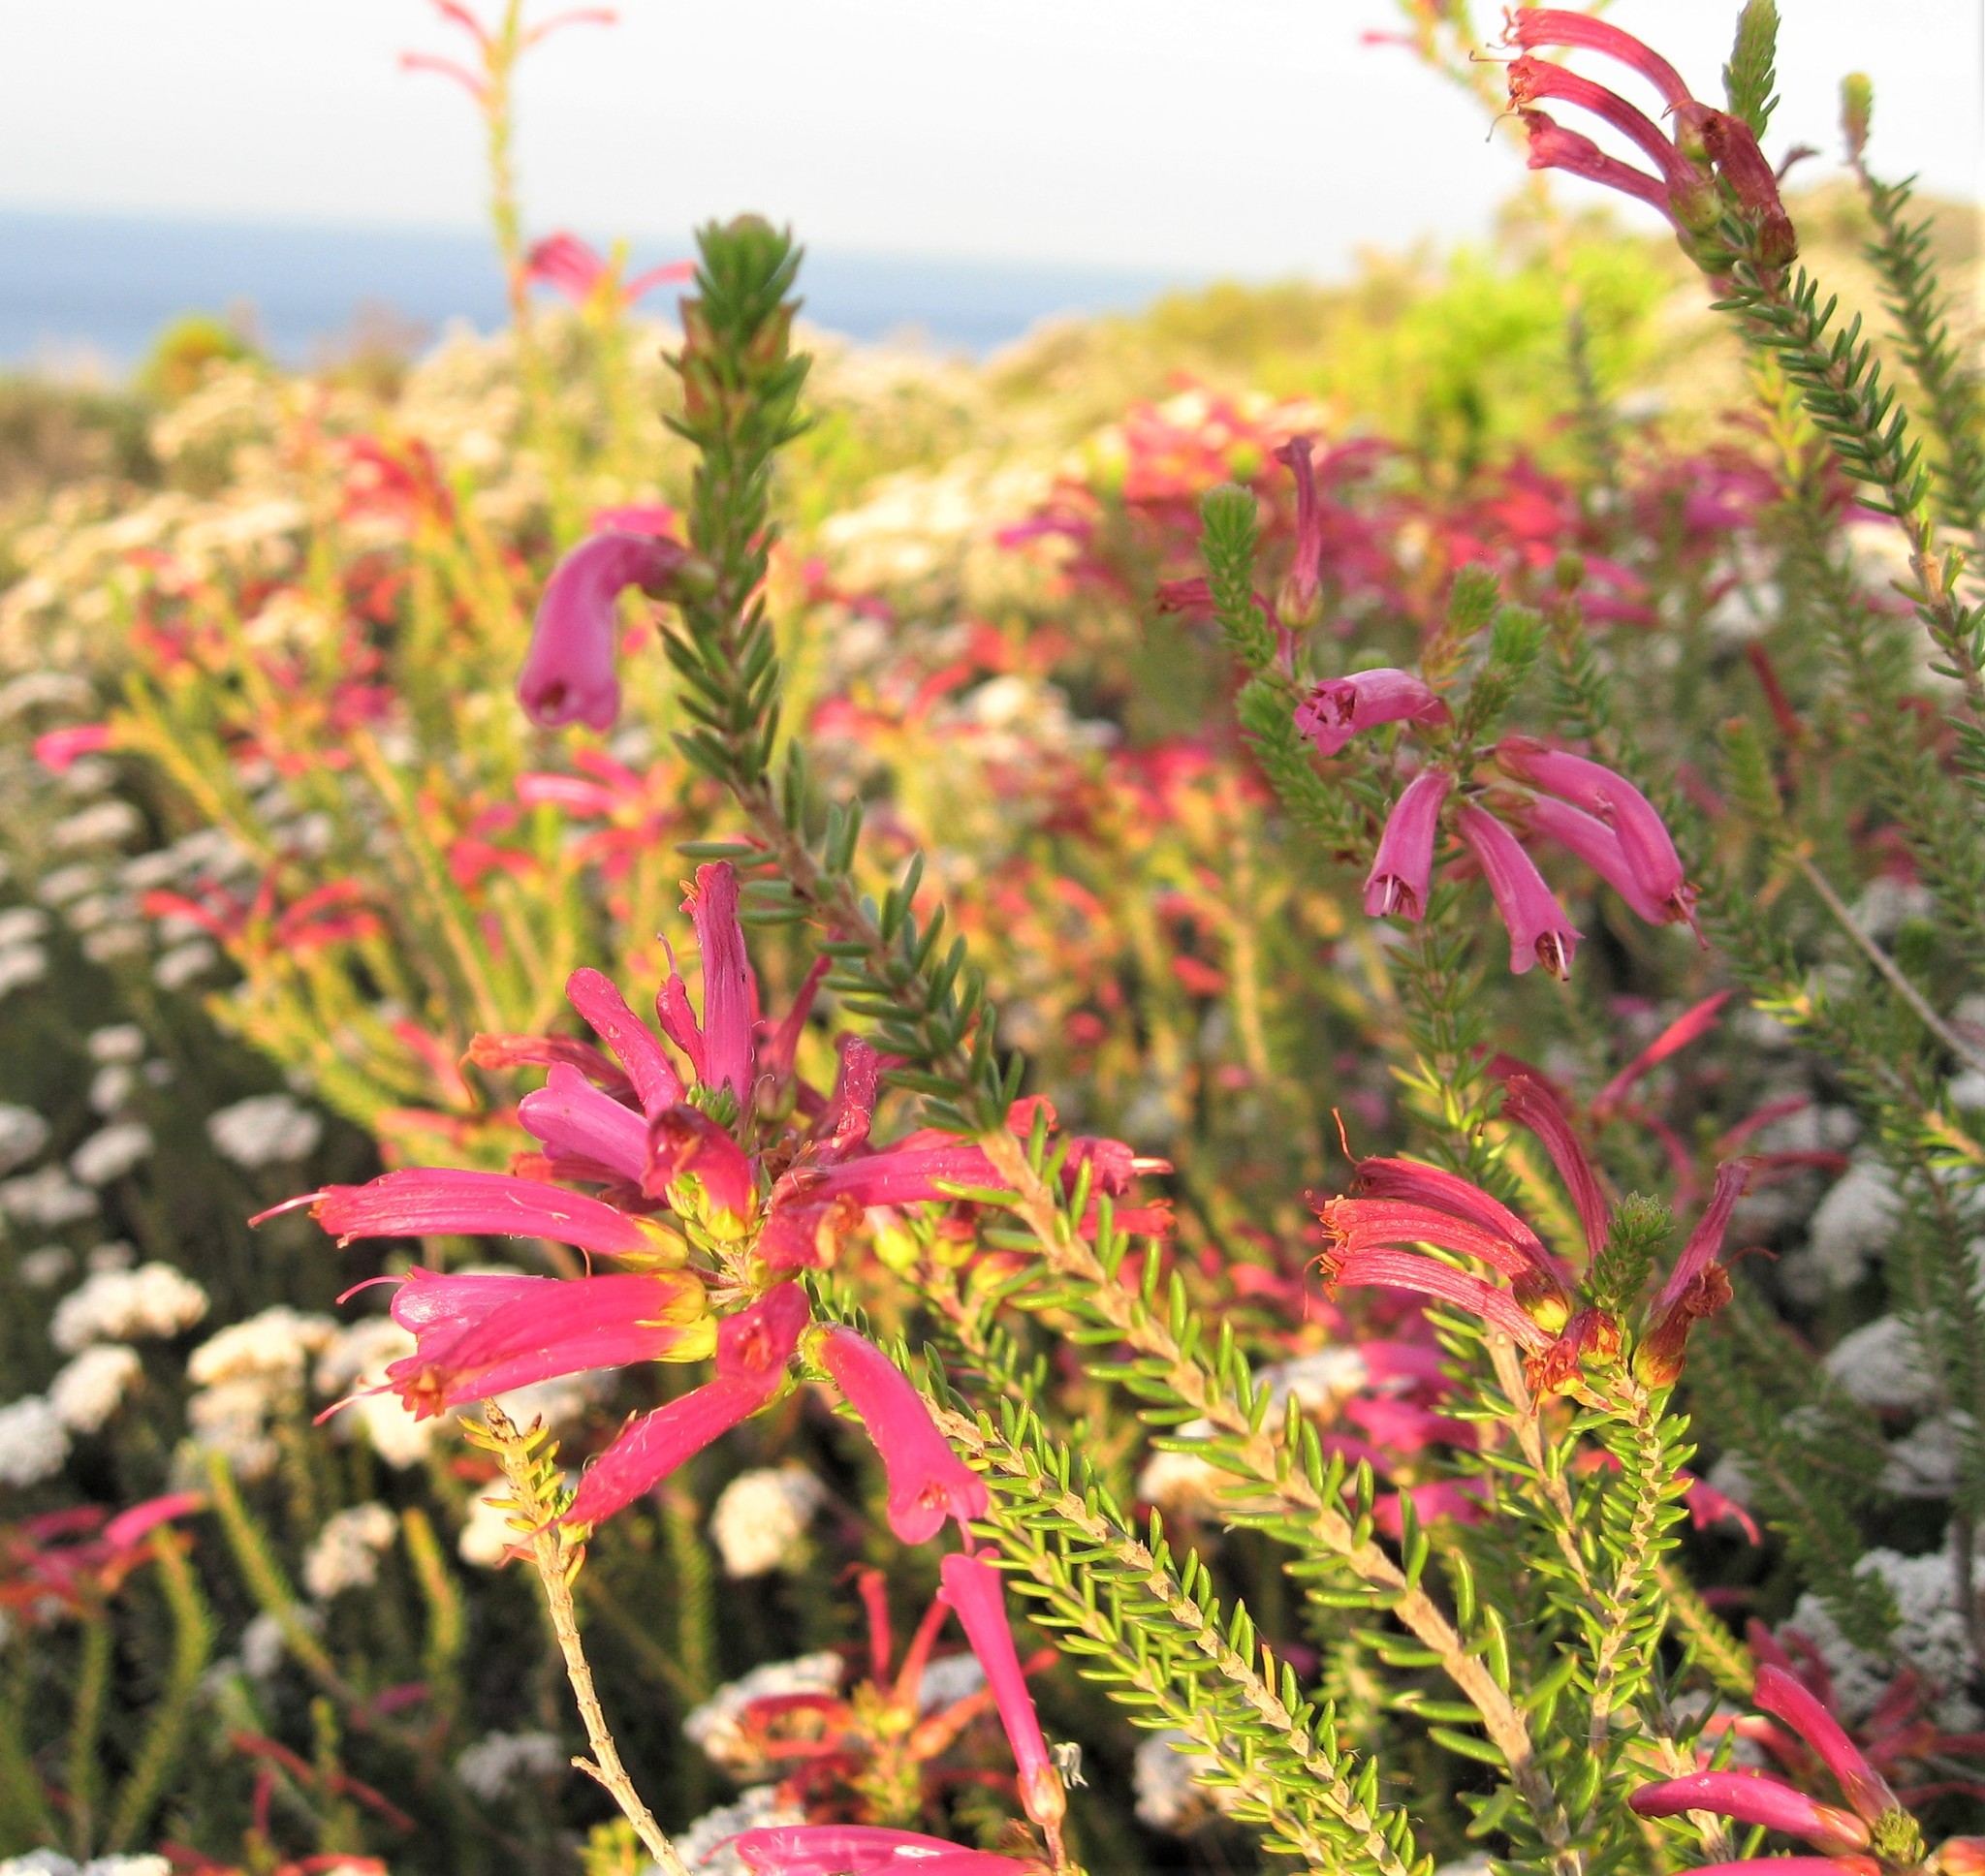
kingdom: Plantae
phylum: Tracheophyta
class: Magnoliopsida
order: Ericales
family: Ericaceae
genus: Erica
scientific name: Erica abietina
